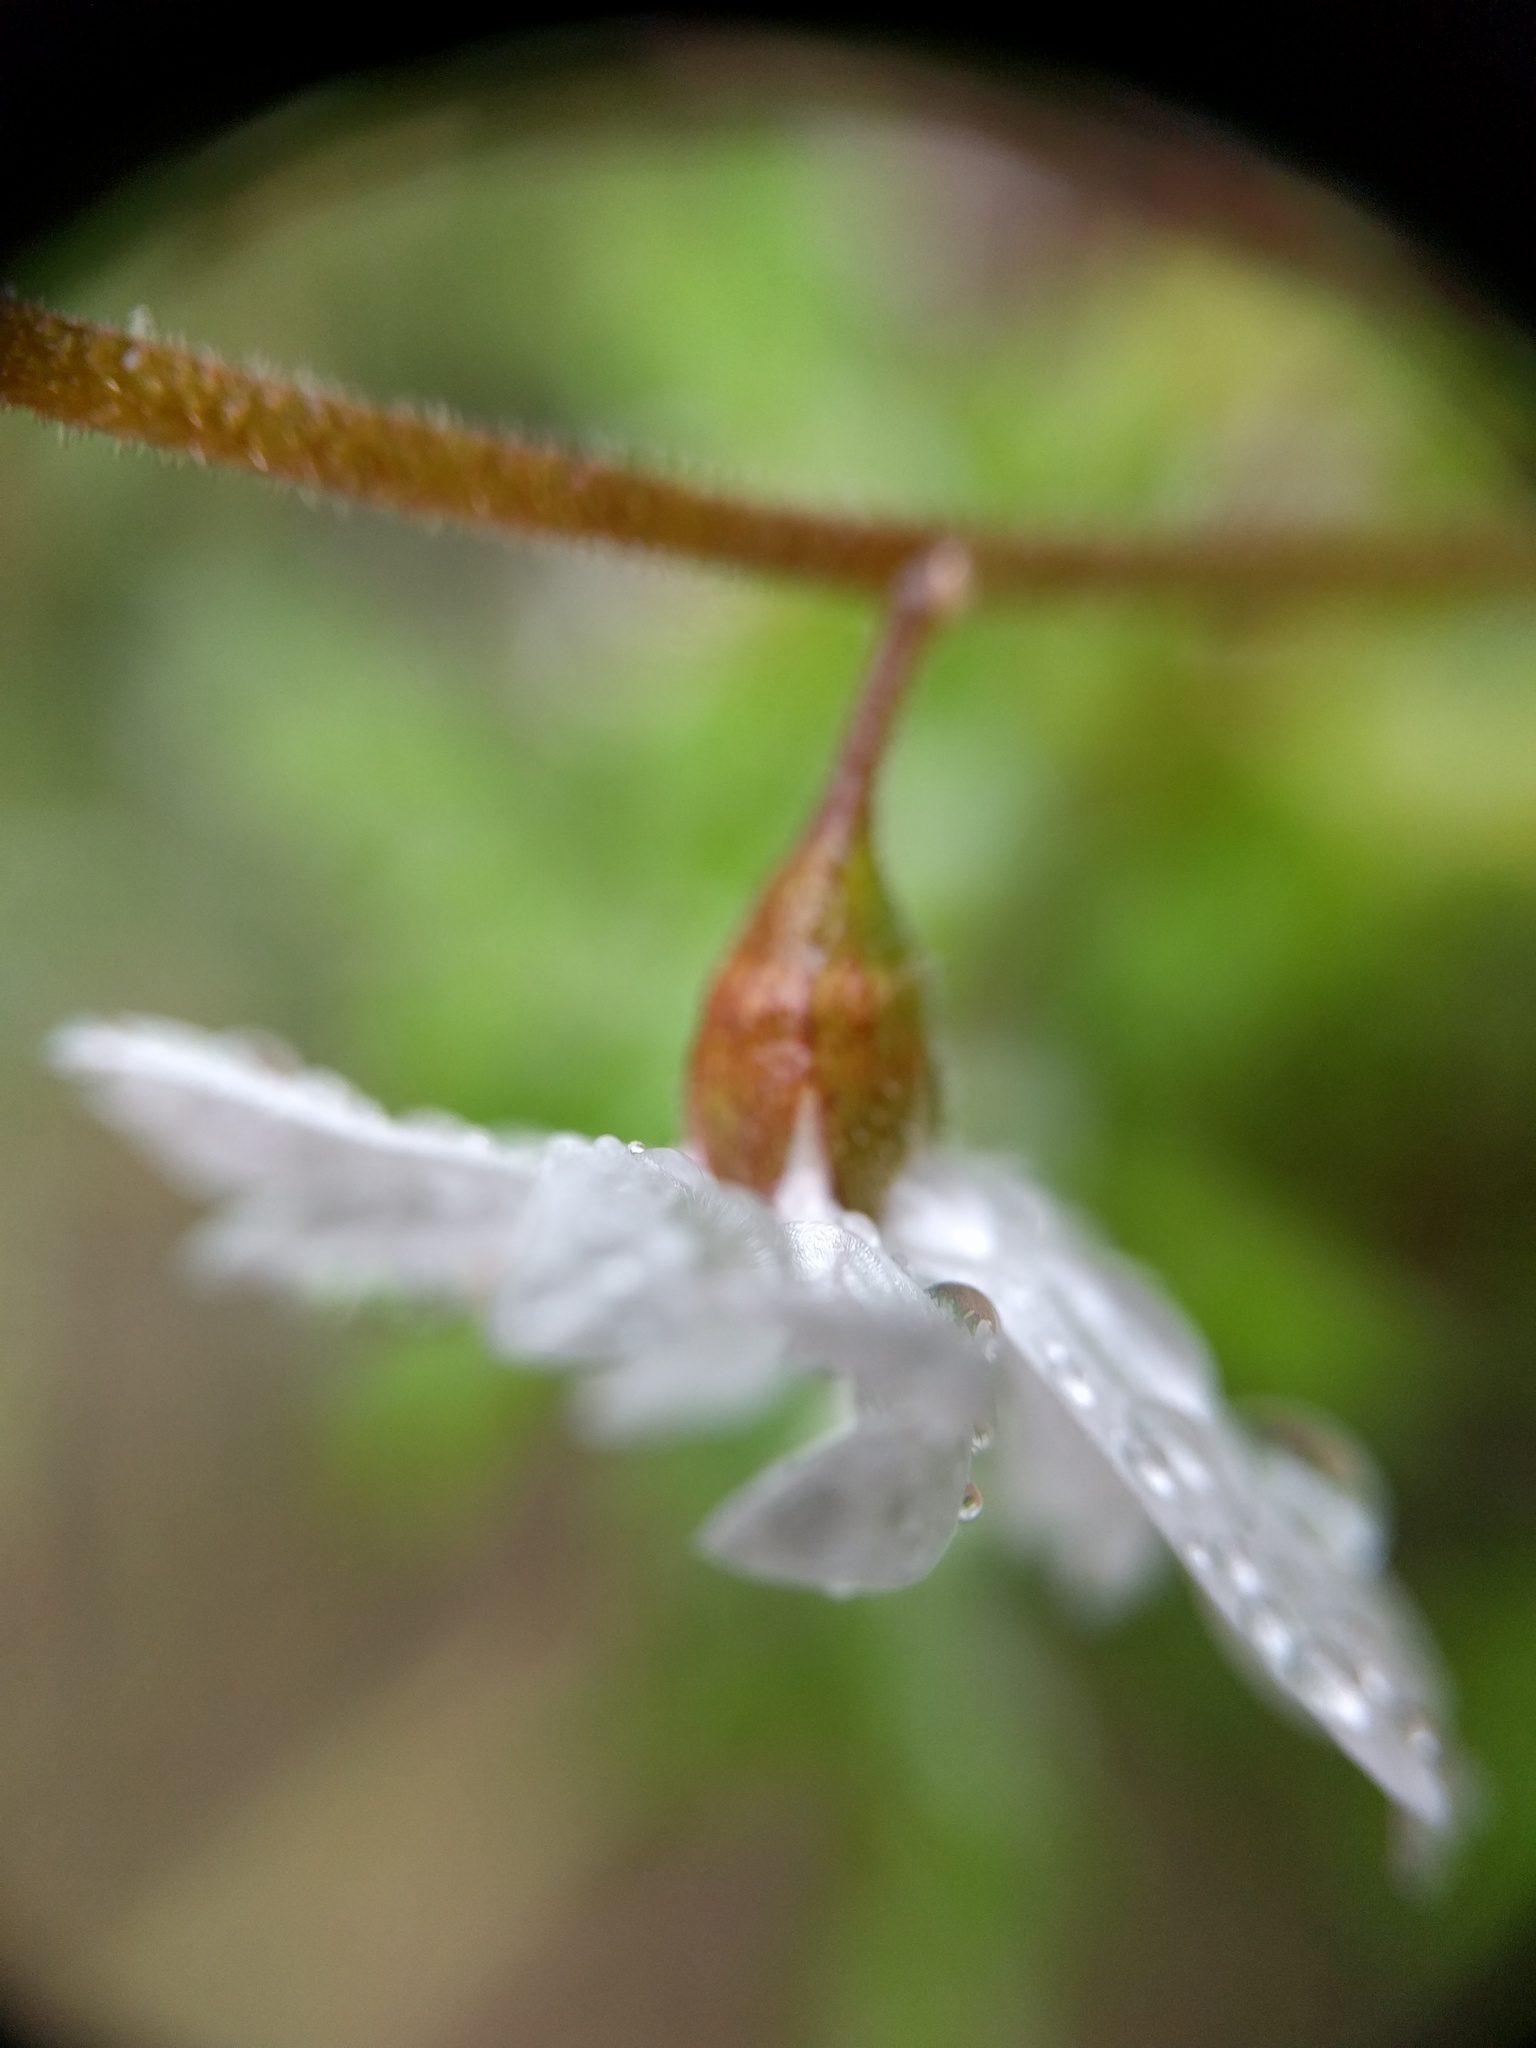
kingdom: Plantae
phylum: Tracheophyta
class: Magnoliopsida
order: Saxifragales
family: Saxifragaceae
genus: Lithophragma
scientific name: Lithophragma affine
